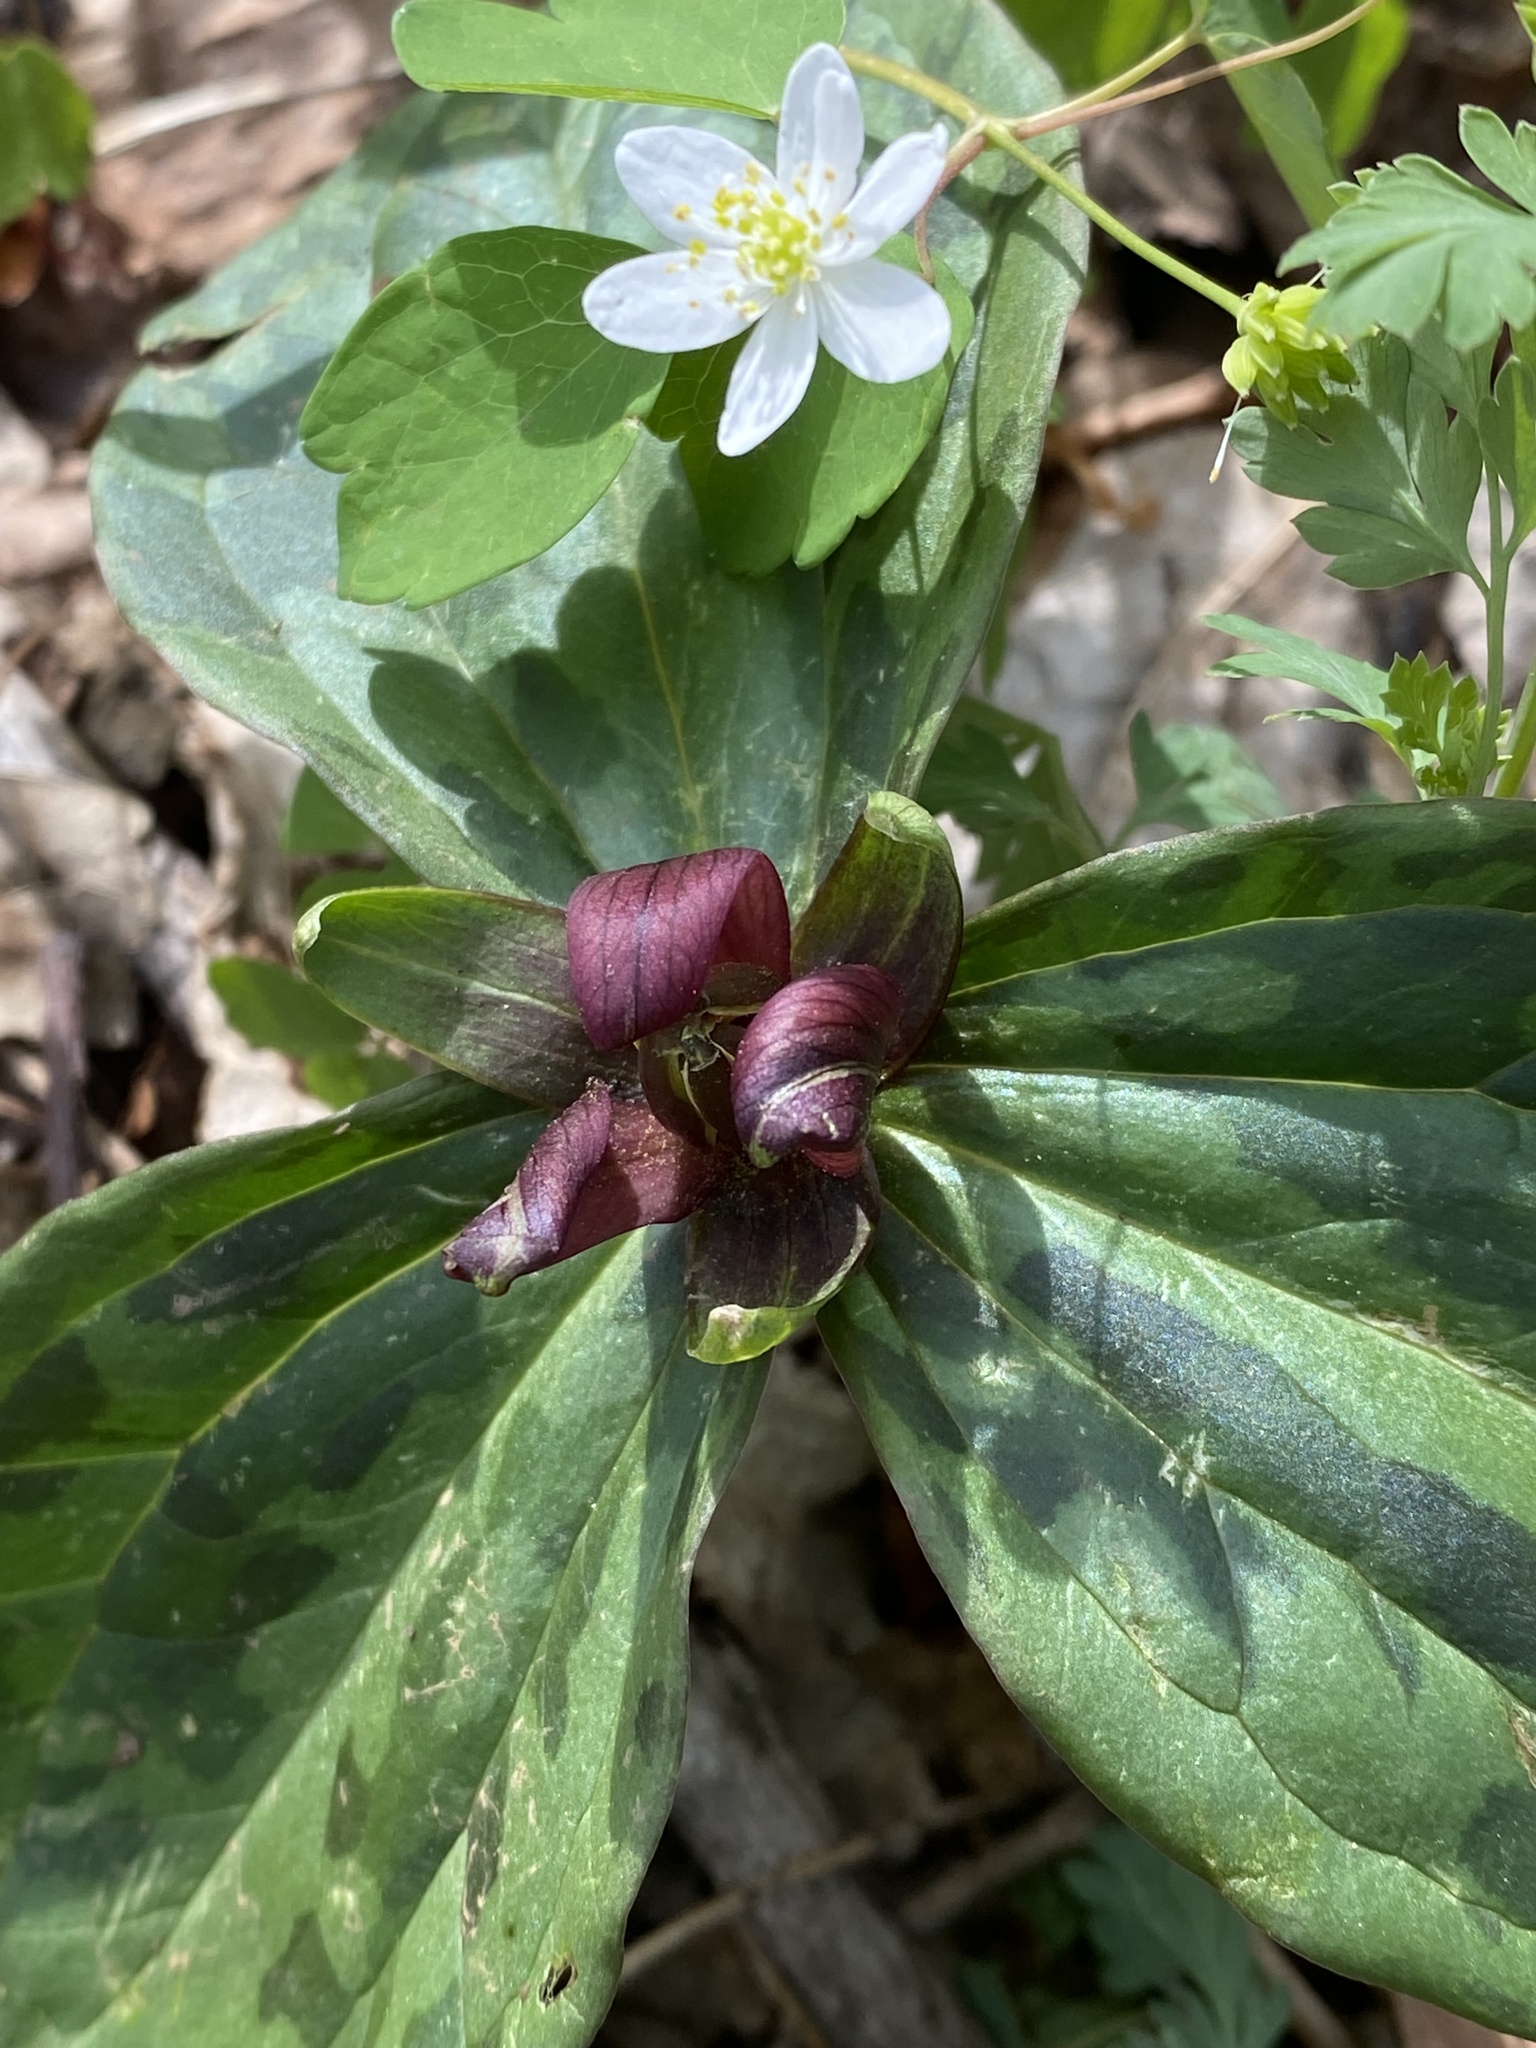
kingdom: Plantae
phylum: Tracheophyta
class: Liliopsida
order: Liliales
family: Melanthiaceae
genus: Trillium
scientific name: Trillium sessile
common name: Sessile trillium
